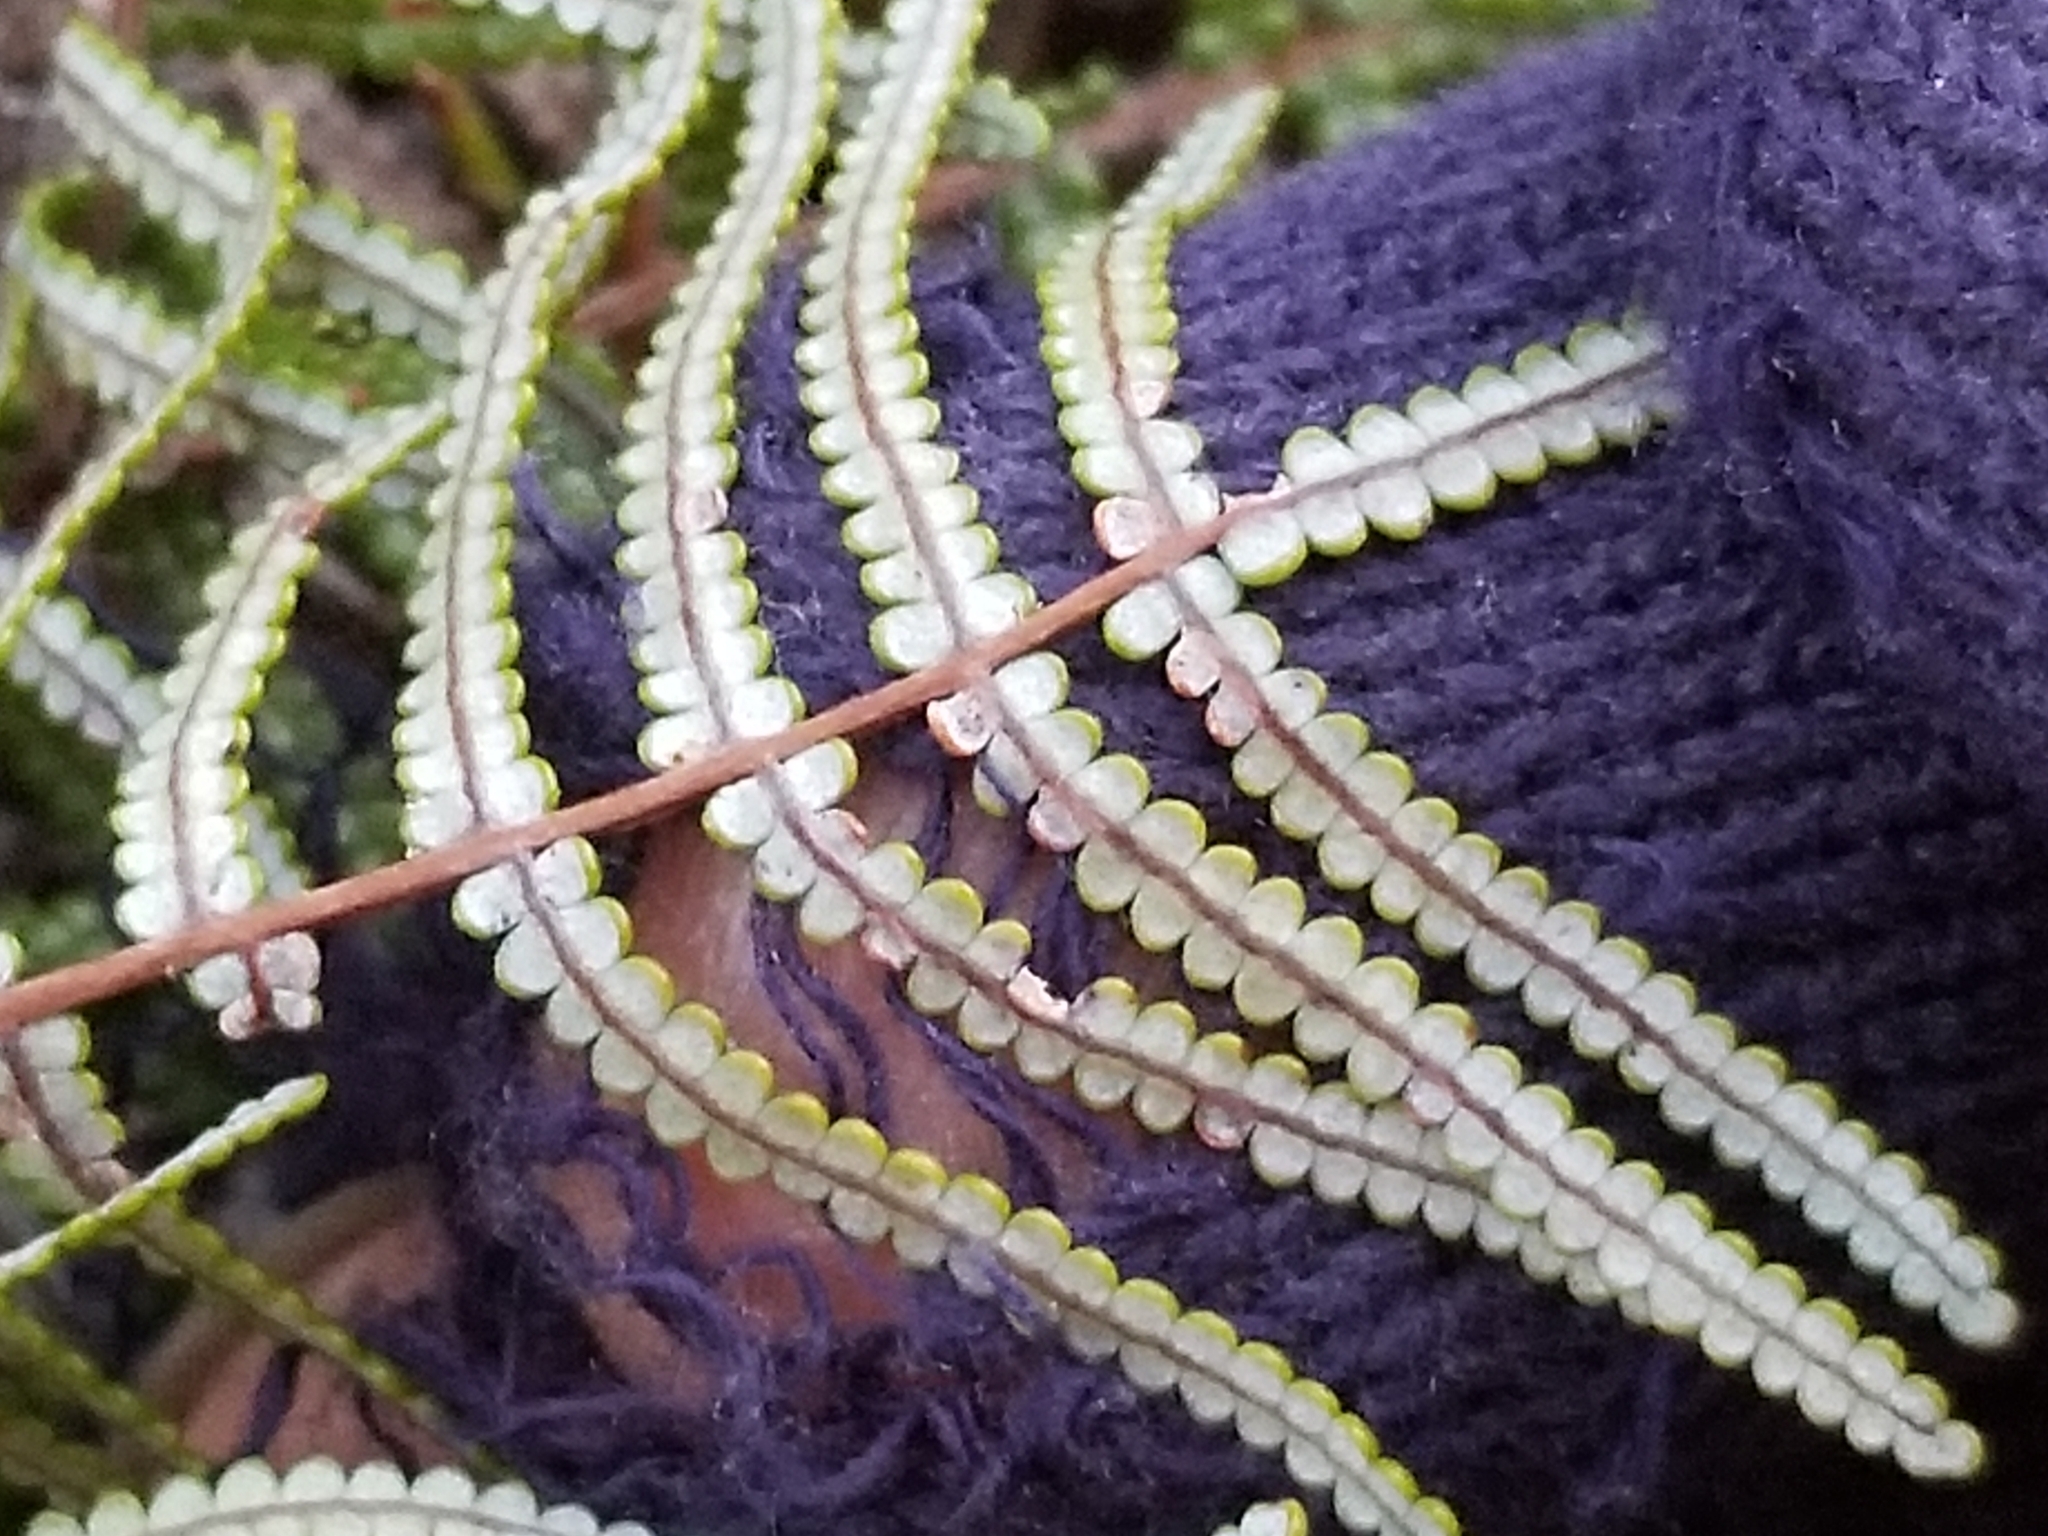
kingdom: Plantae
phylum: Tracheophyta
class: Polypodiopsida
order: Gleicheniales
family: Gleicheniaceae
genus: Gleichenia
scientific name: Gleichenia inclusisora
